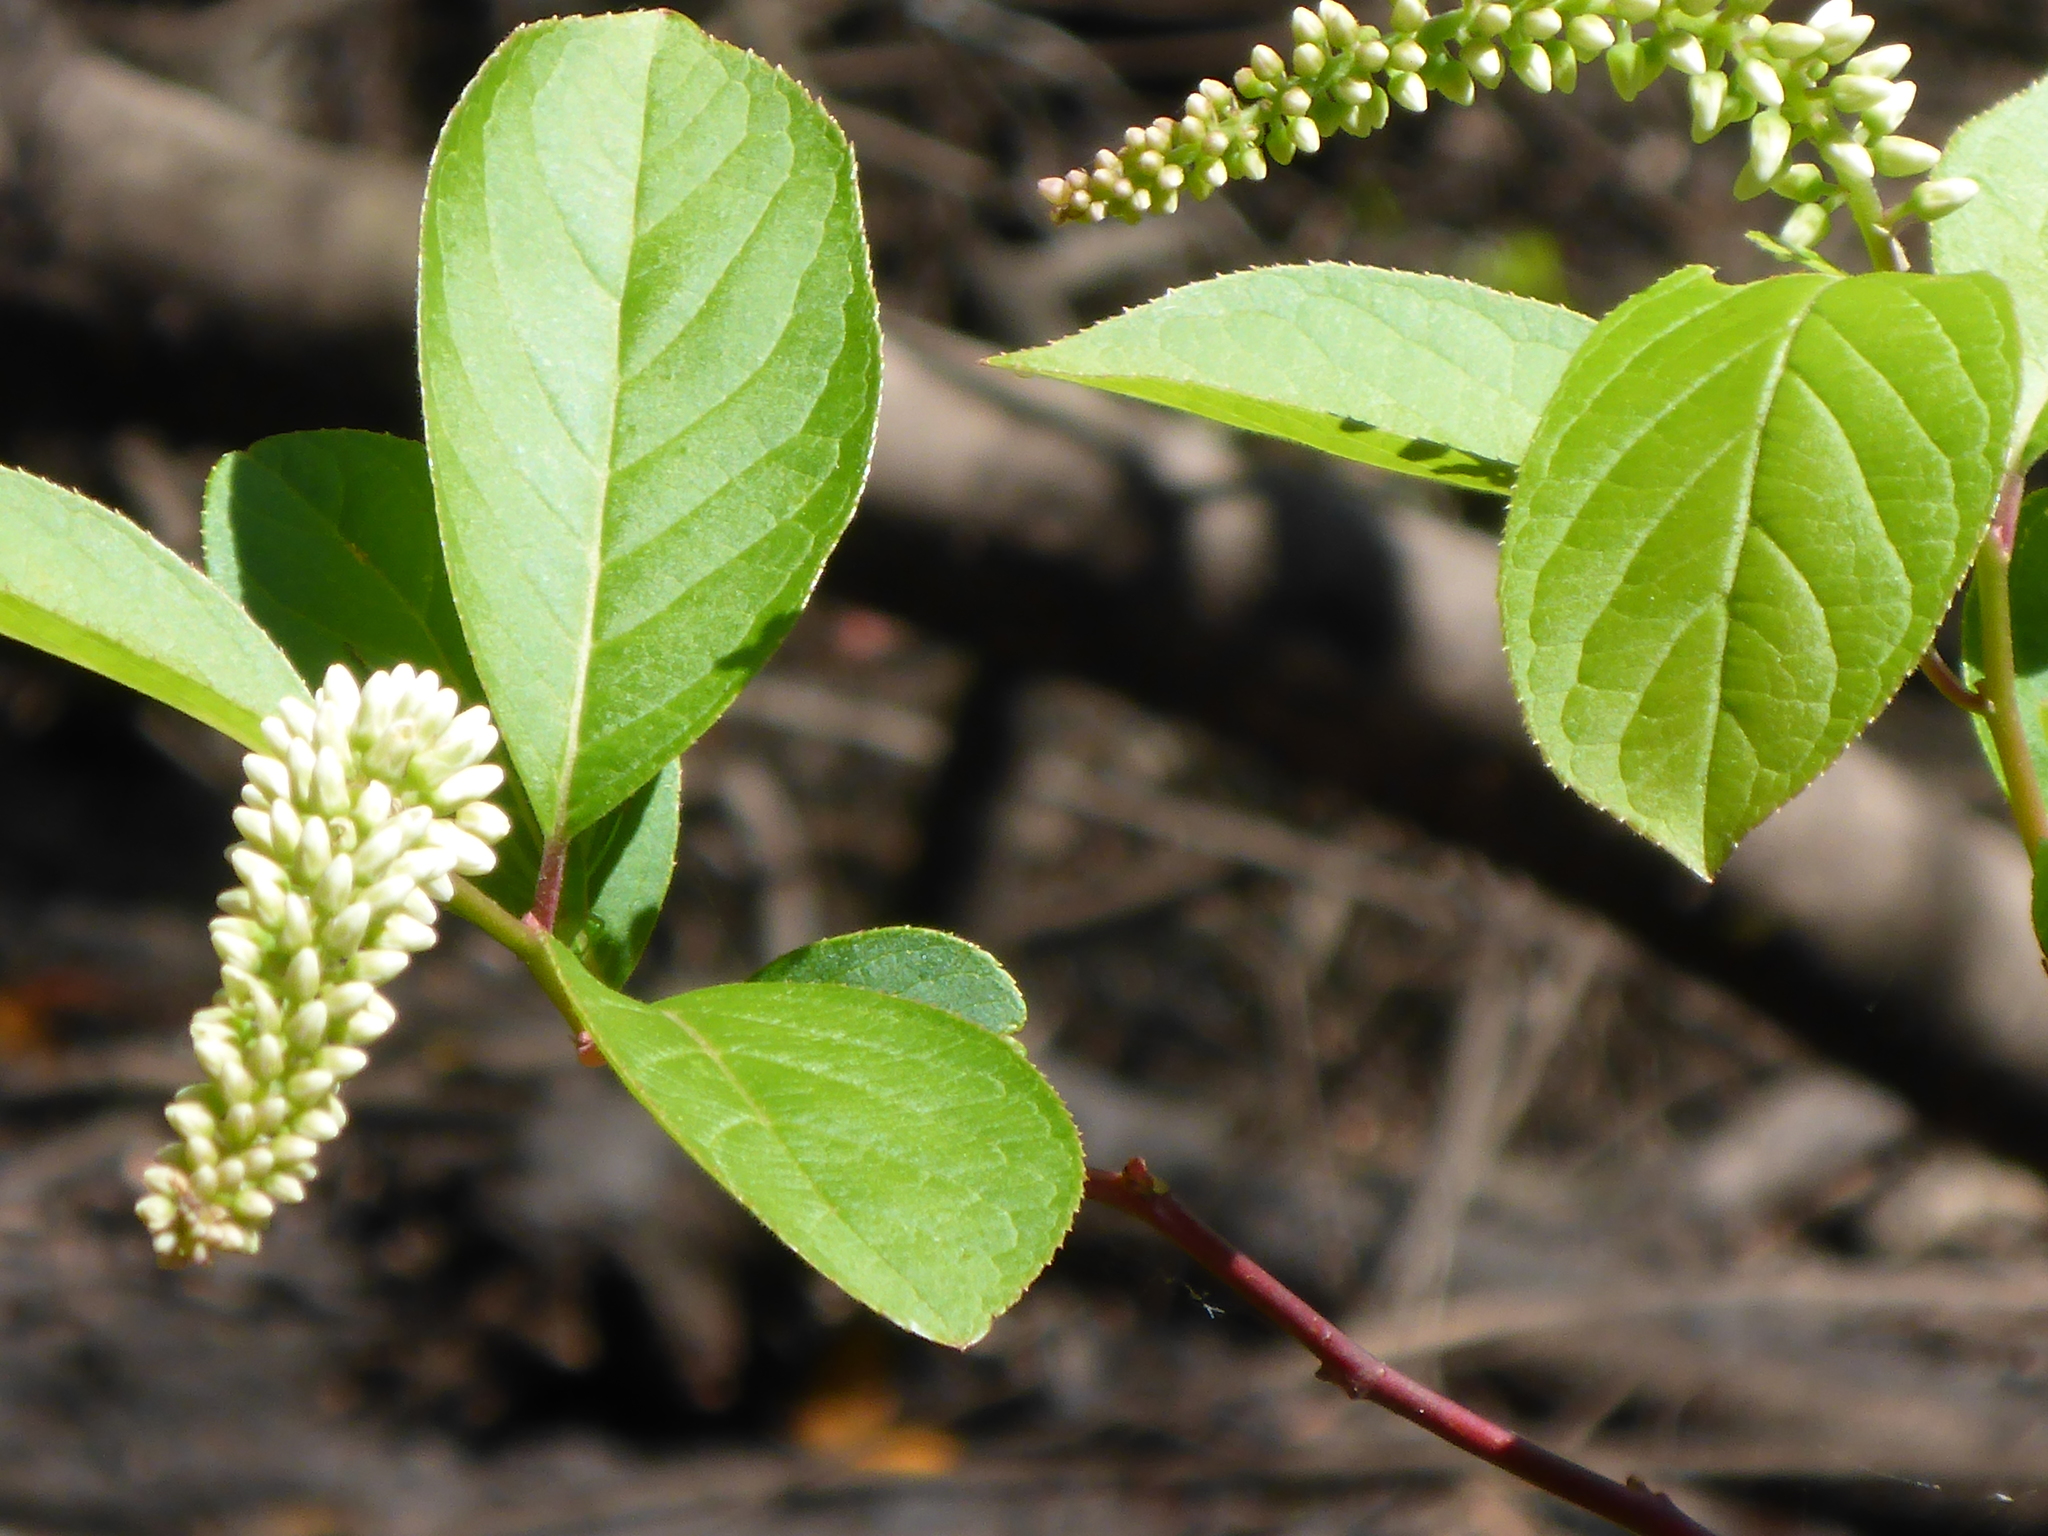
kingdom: Plantae
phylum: Tracheophyta
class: Magnoliopsida
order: Saxifragales
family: Iteaceae
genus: Itea
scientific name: Itea virginica
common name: Sweetspire
